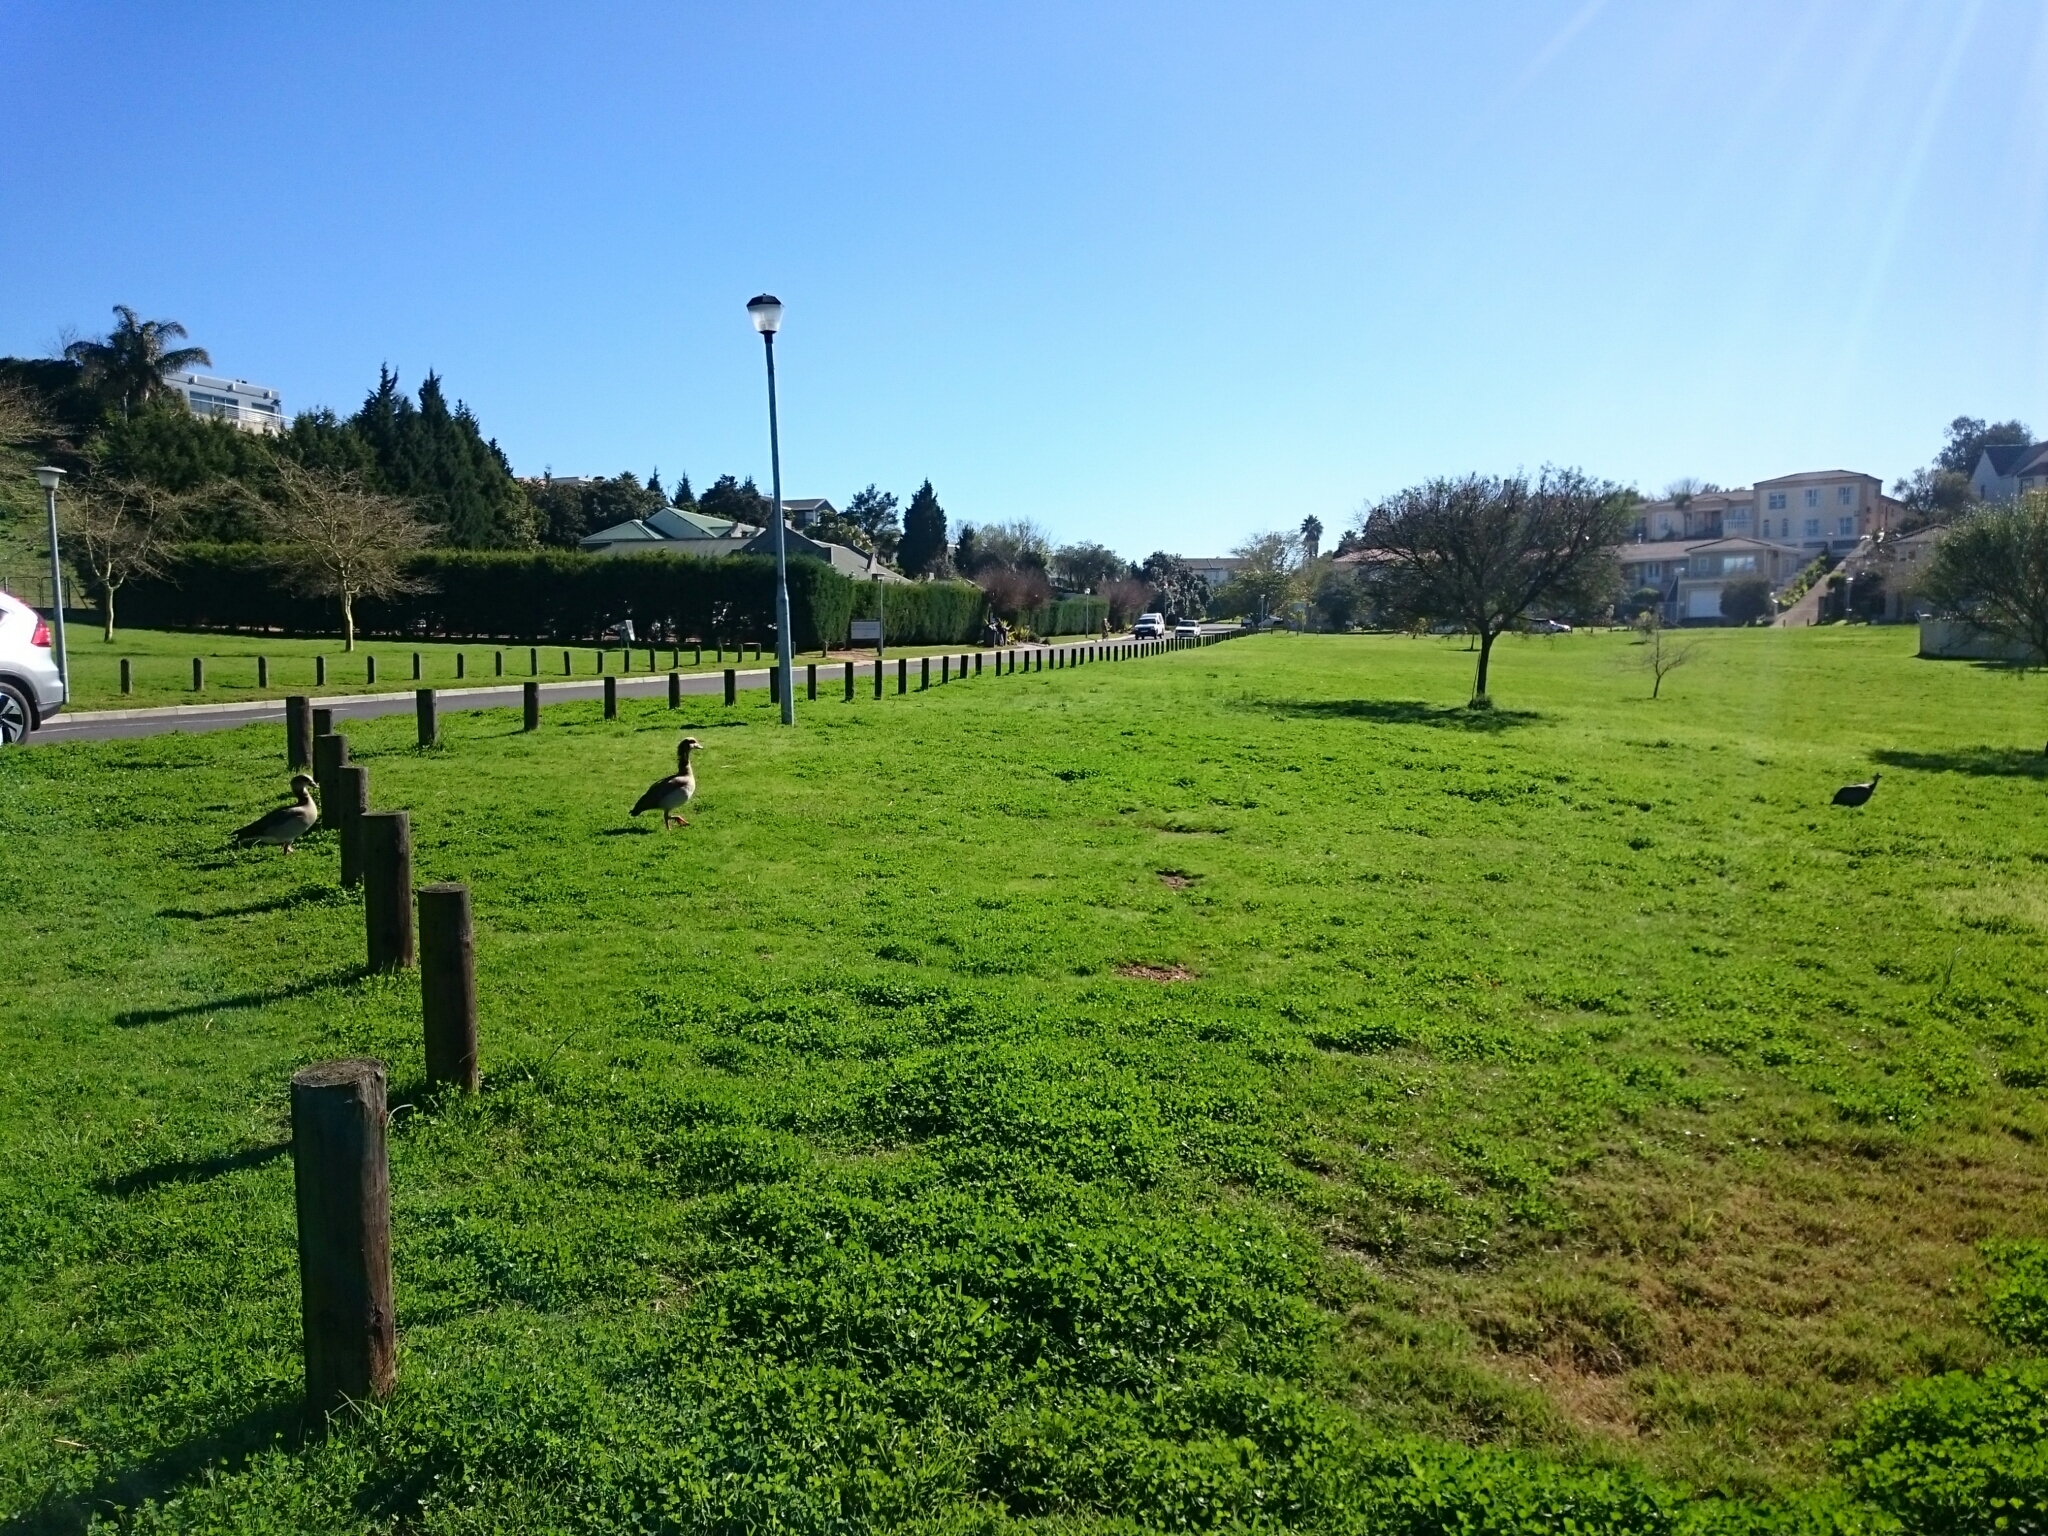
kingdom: Animalia
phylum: Chordata
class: Aves
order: Anseriformes
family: Anatidae
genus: Alopochen
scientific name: Alopochen aegyptiaca
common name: Egyptian goose
